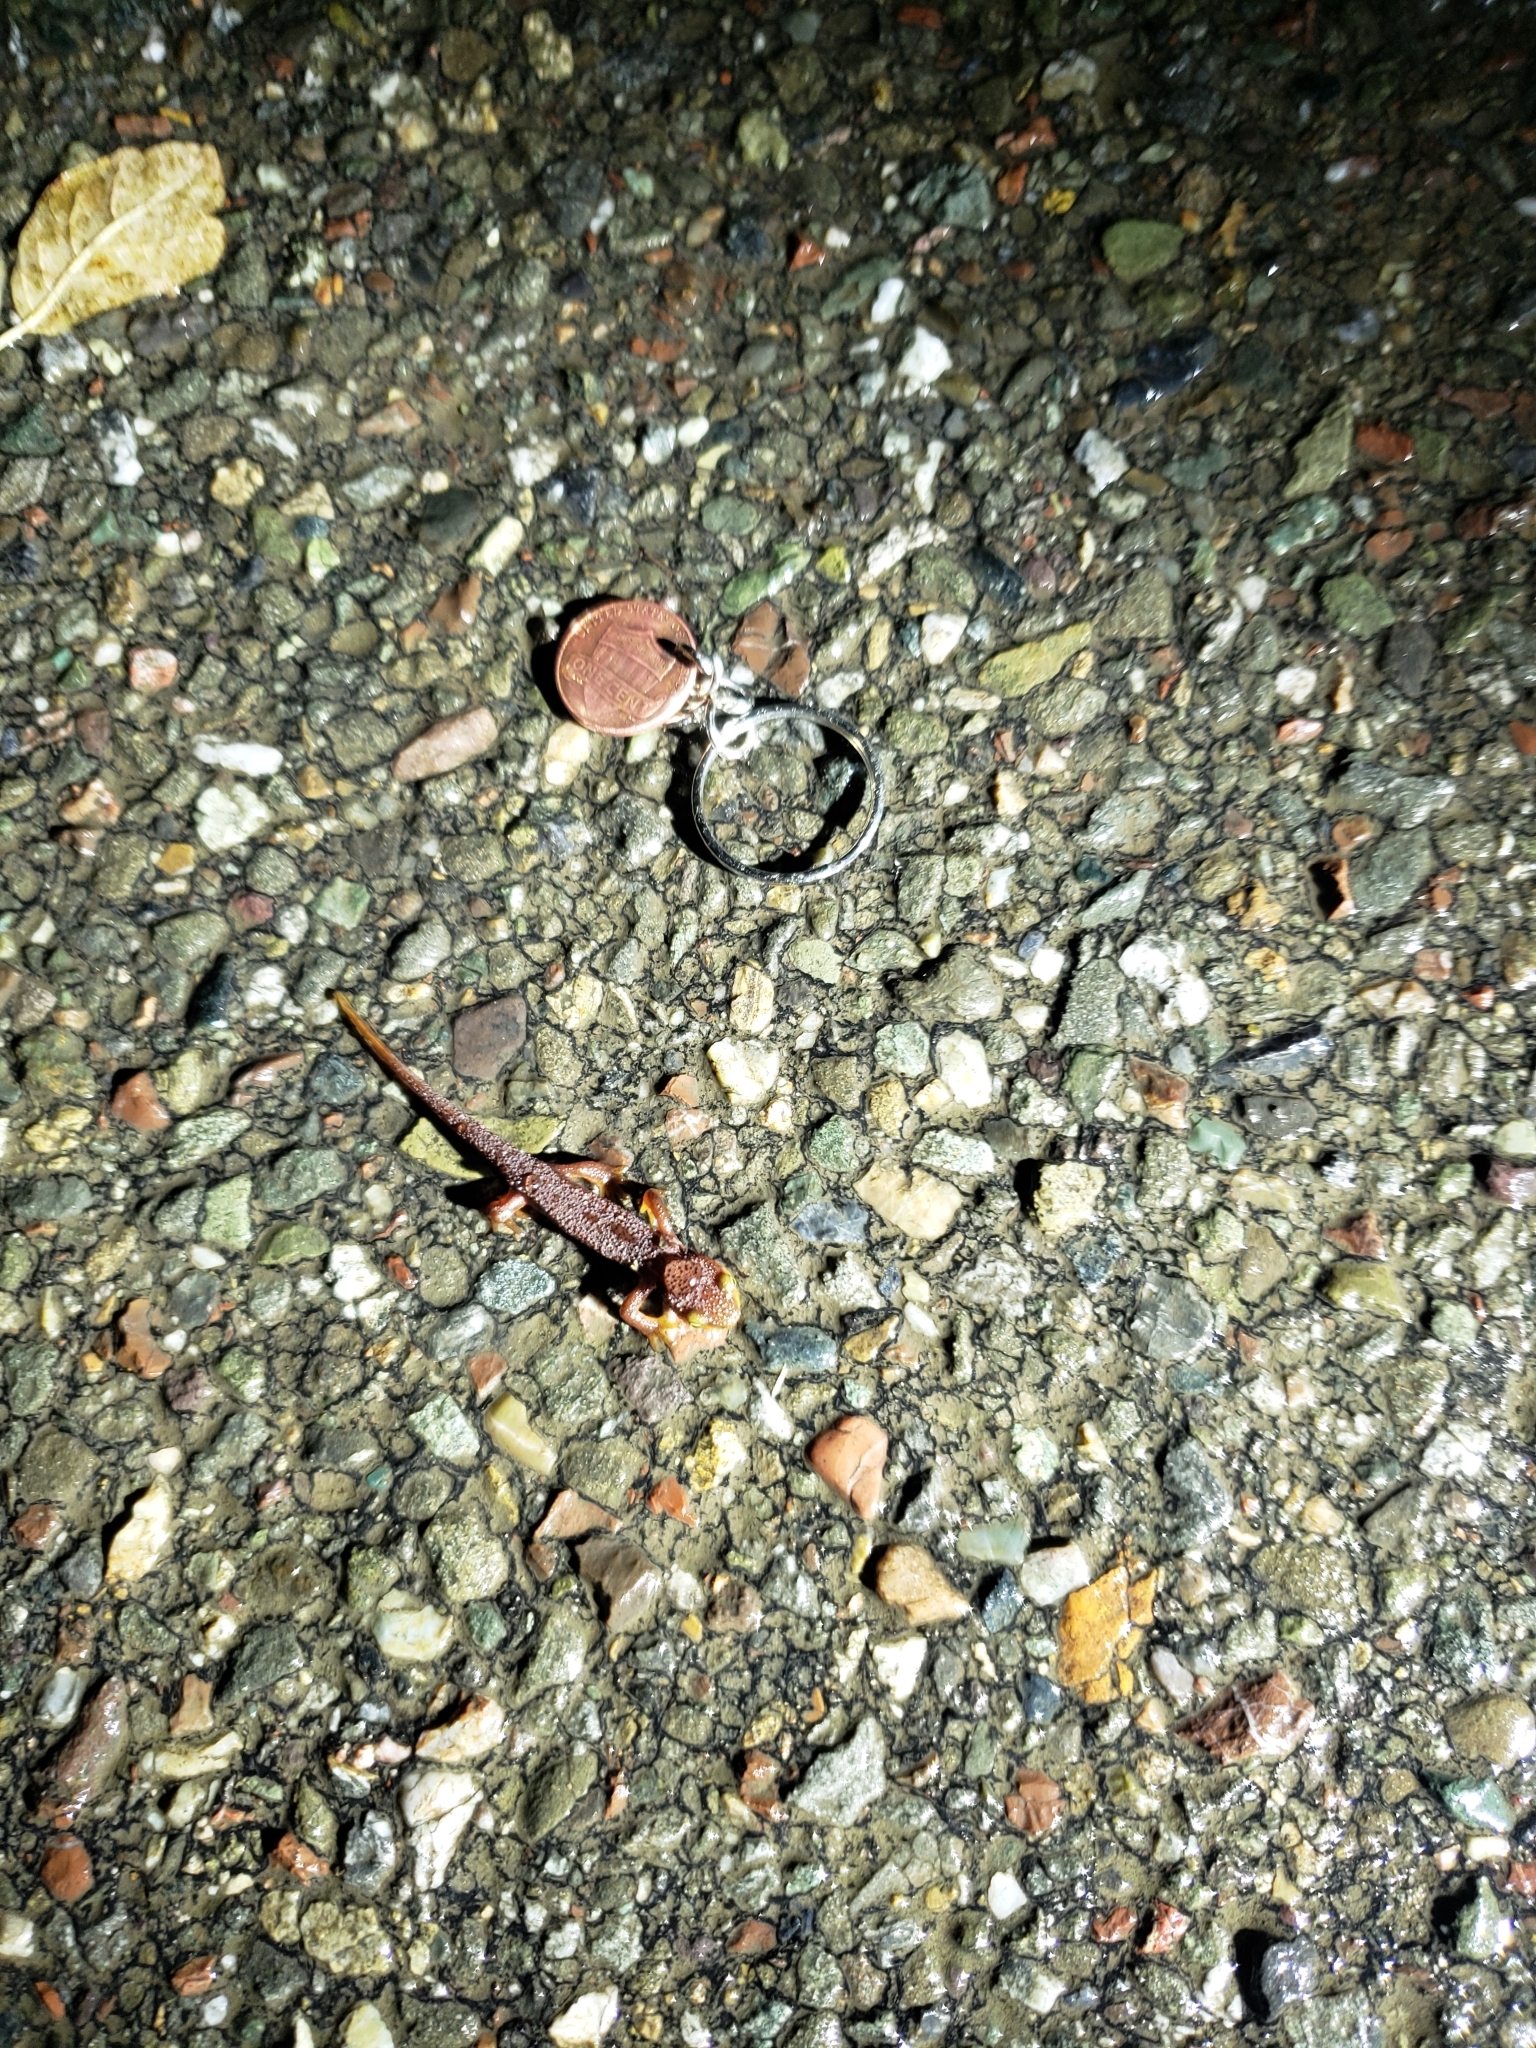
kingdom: Animalia
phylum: Chordata
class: Amphibia
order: Caudata
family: Salamandridae
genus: Taricha
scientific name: Taricha torosa
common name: California newt
